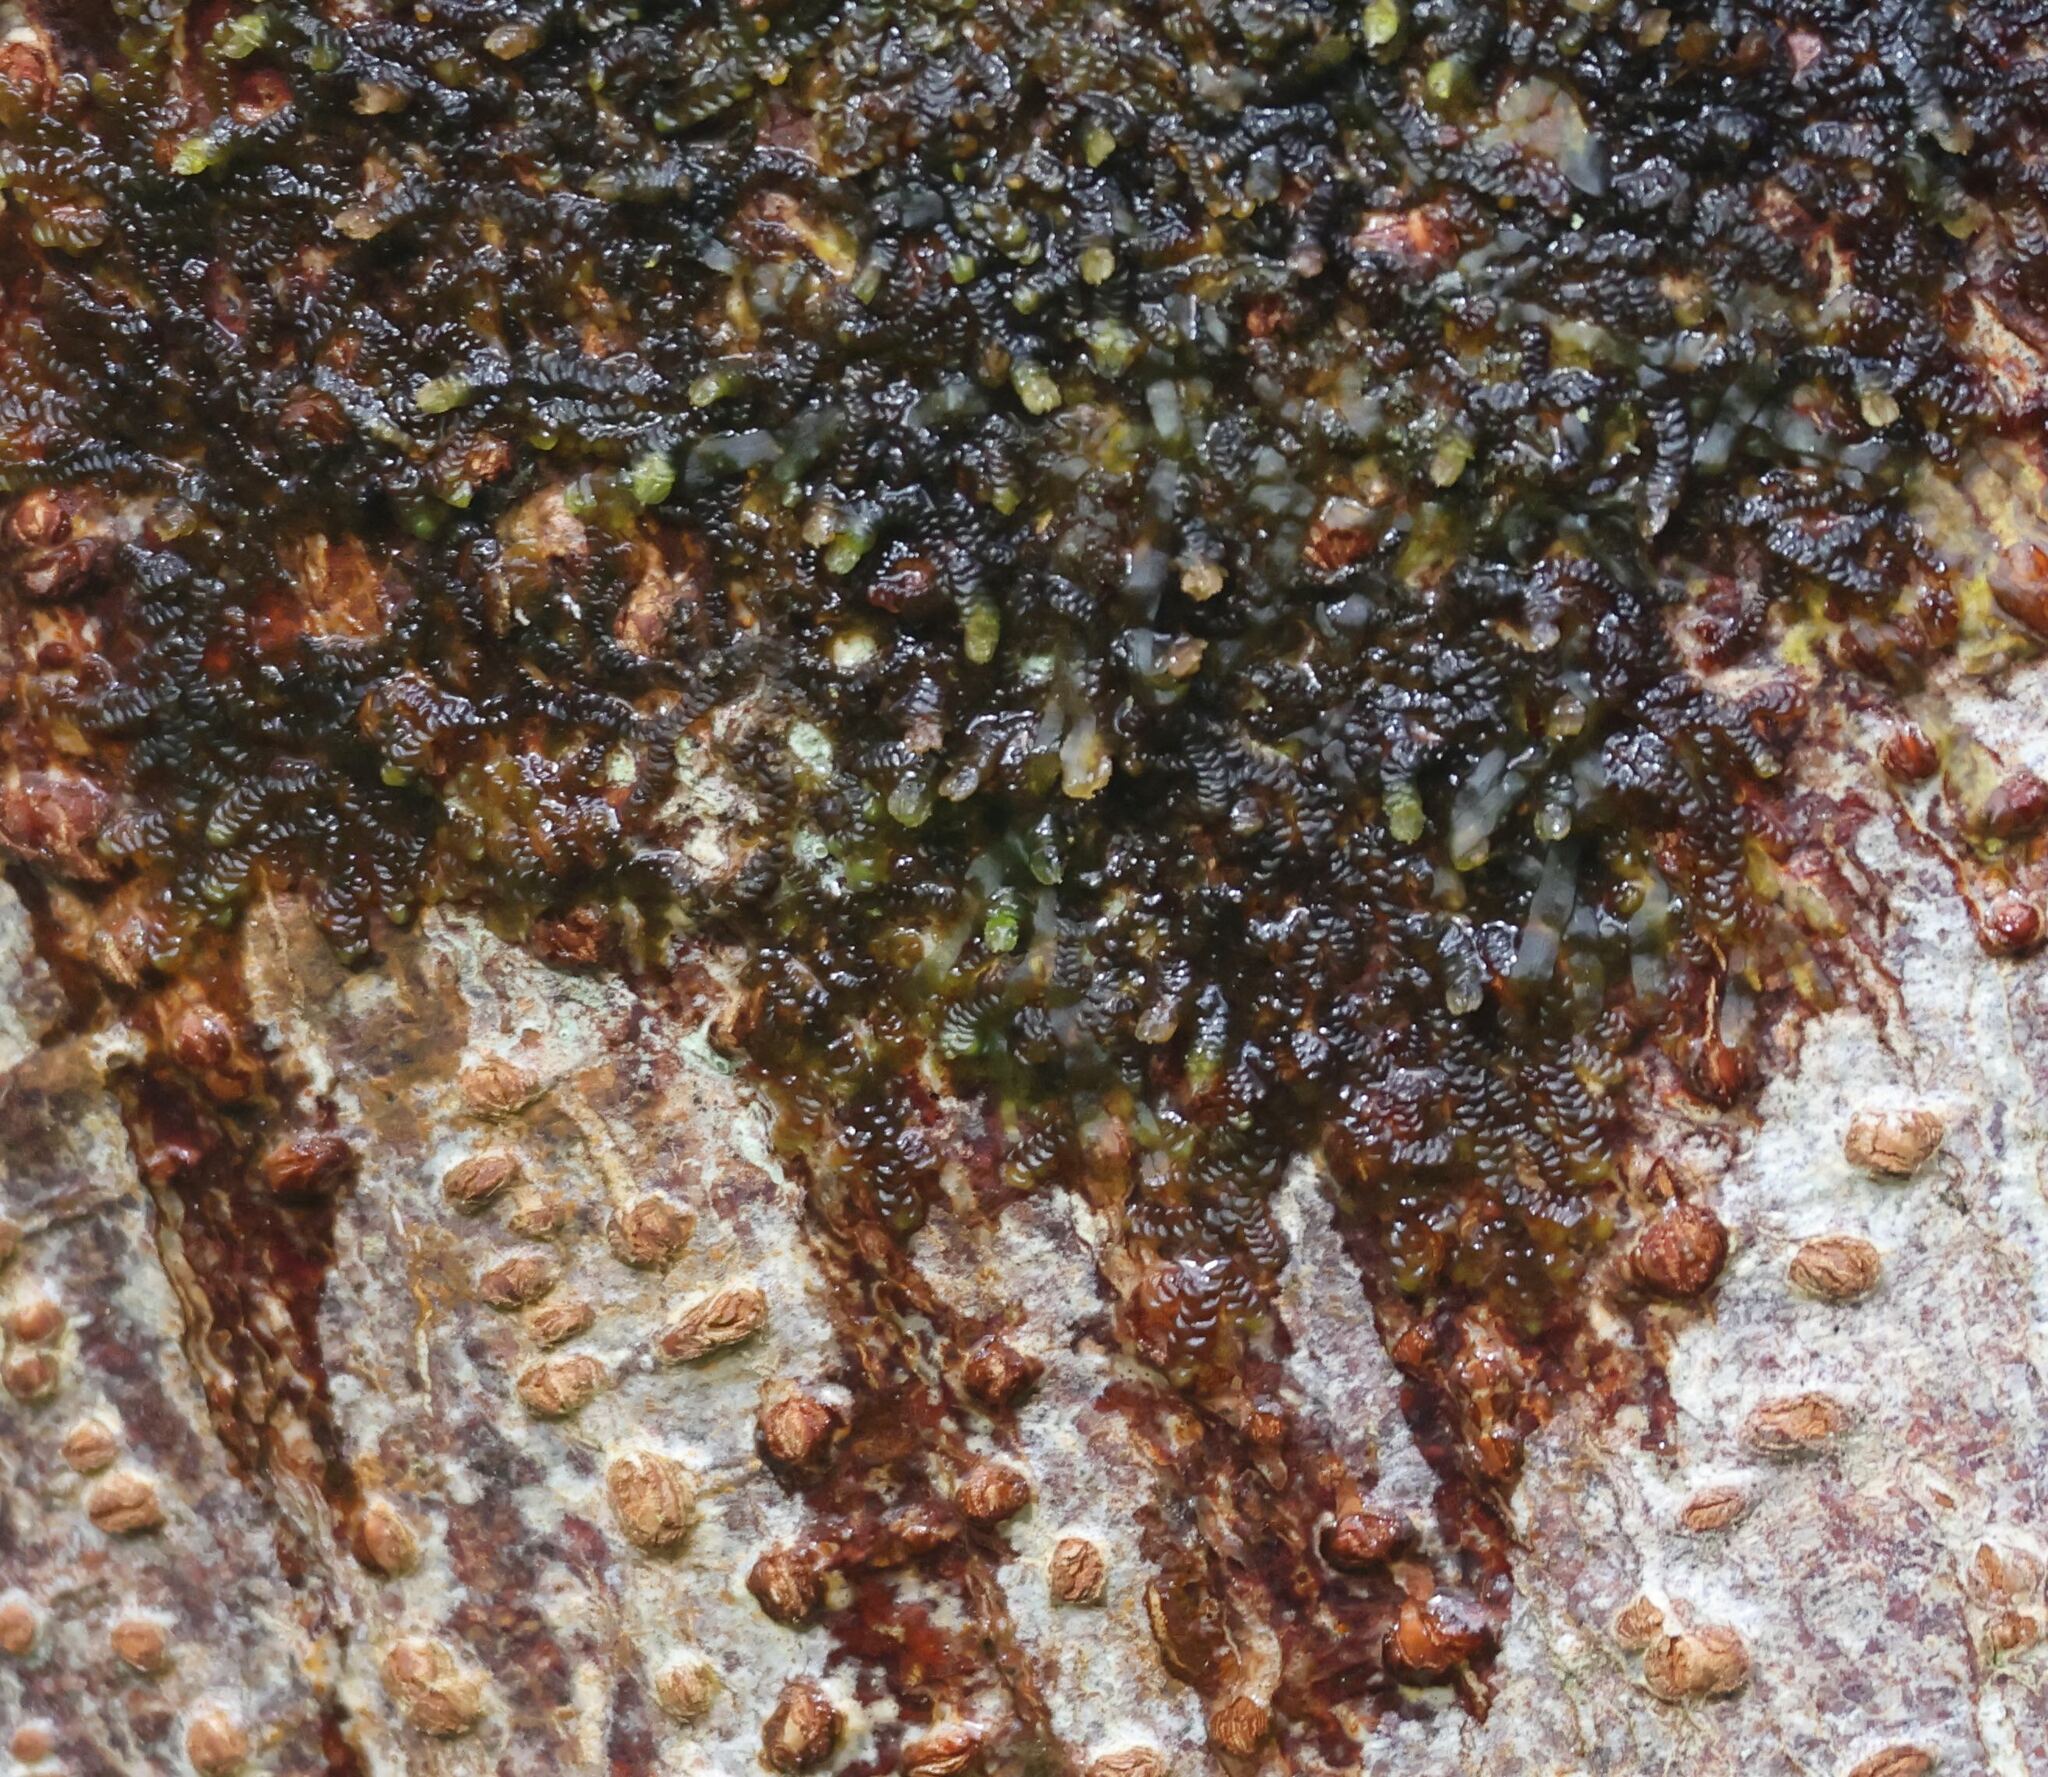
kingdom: Plantae
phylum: Marchantiophyta
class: Jungermanniopsida
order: Porellales
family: Frullaniaceae
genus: Frullania
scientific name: Frullania dilatata
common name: Dilated scalewort
